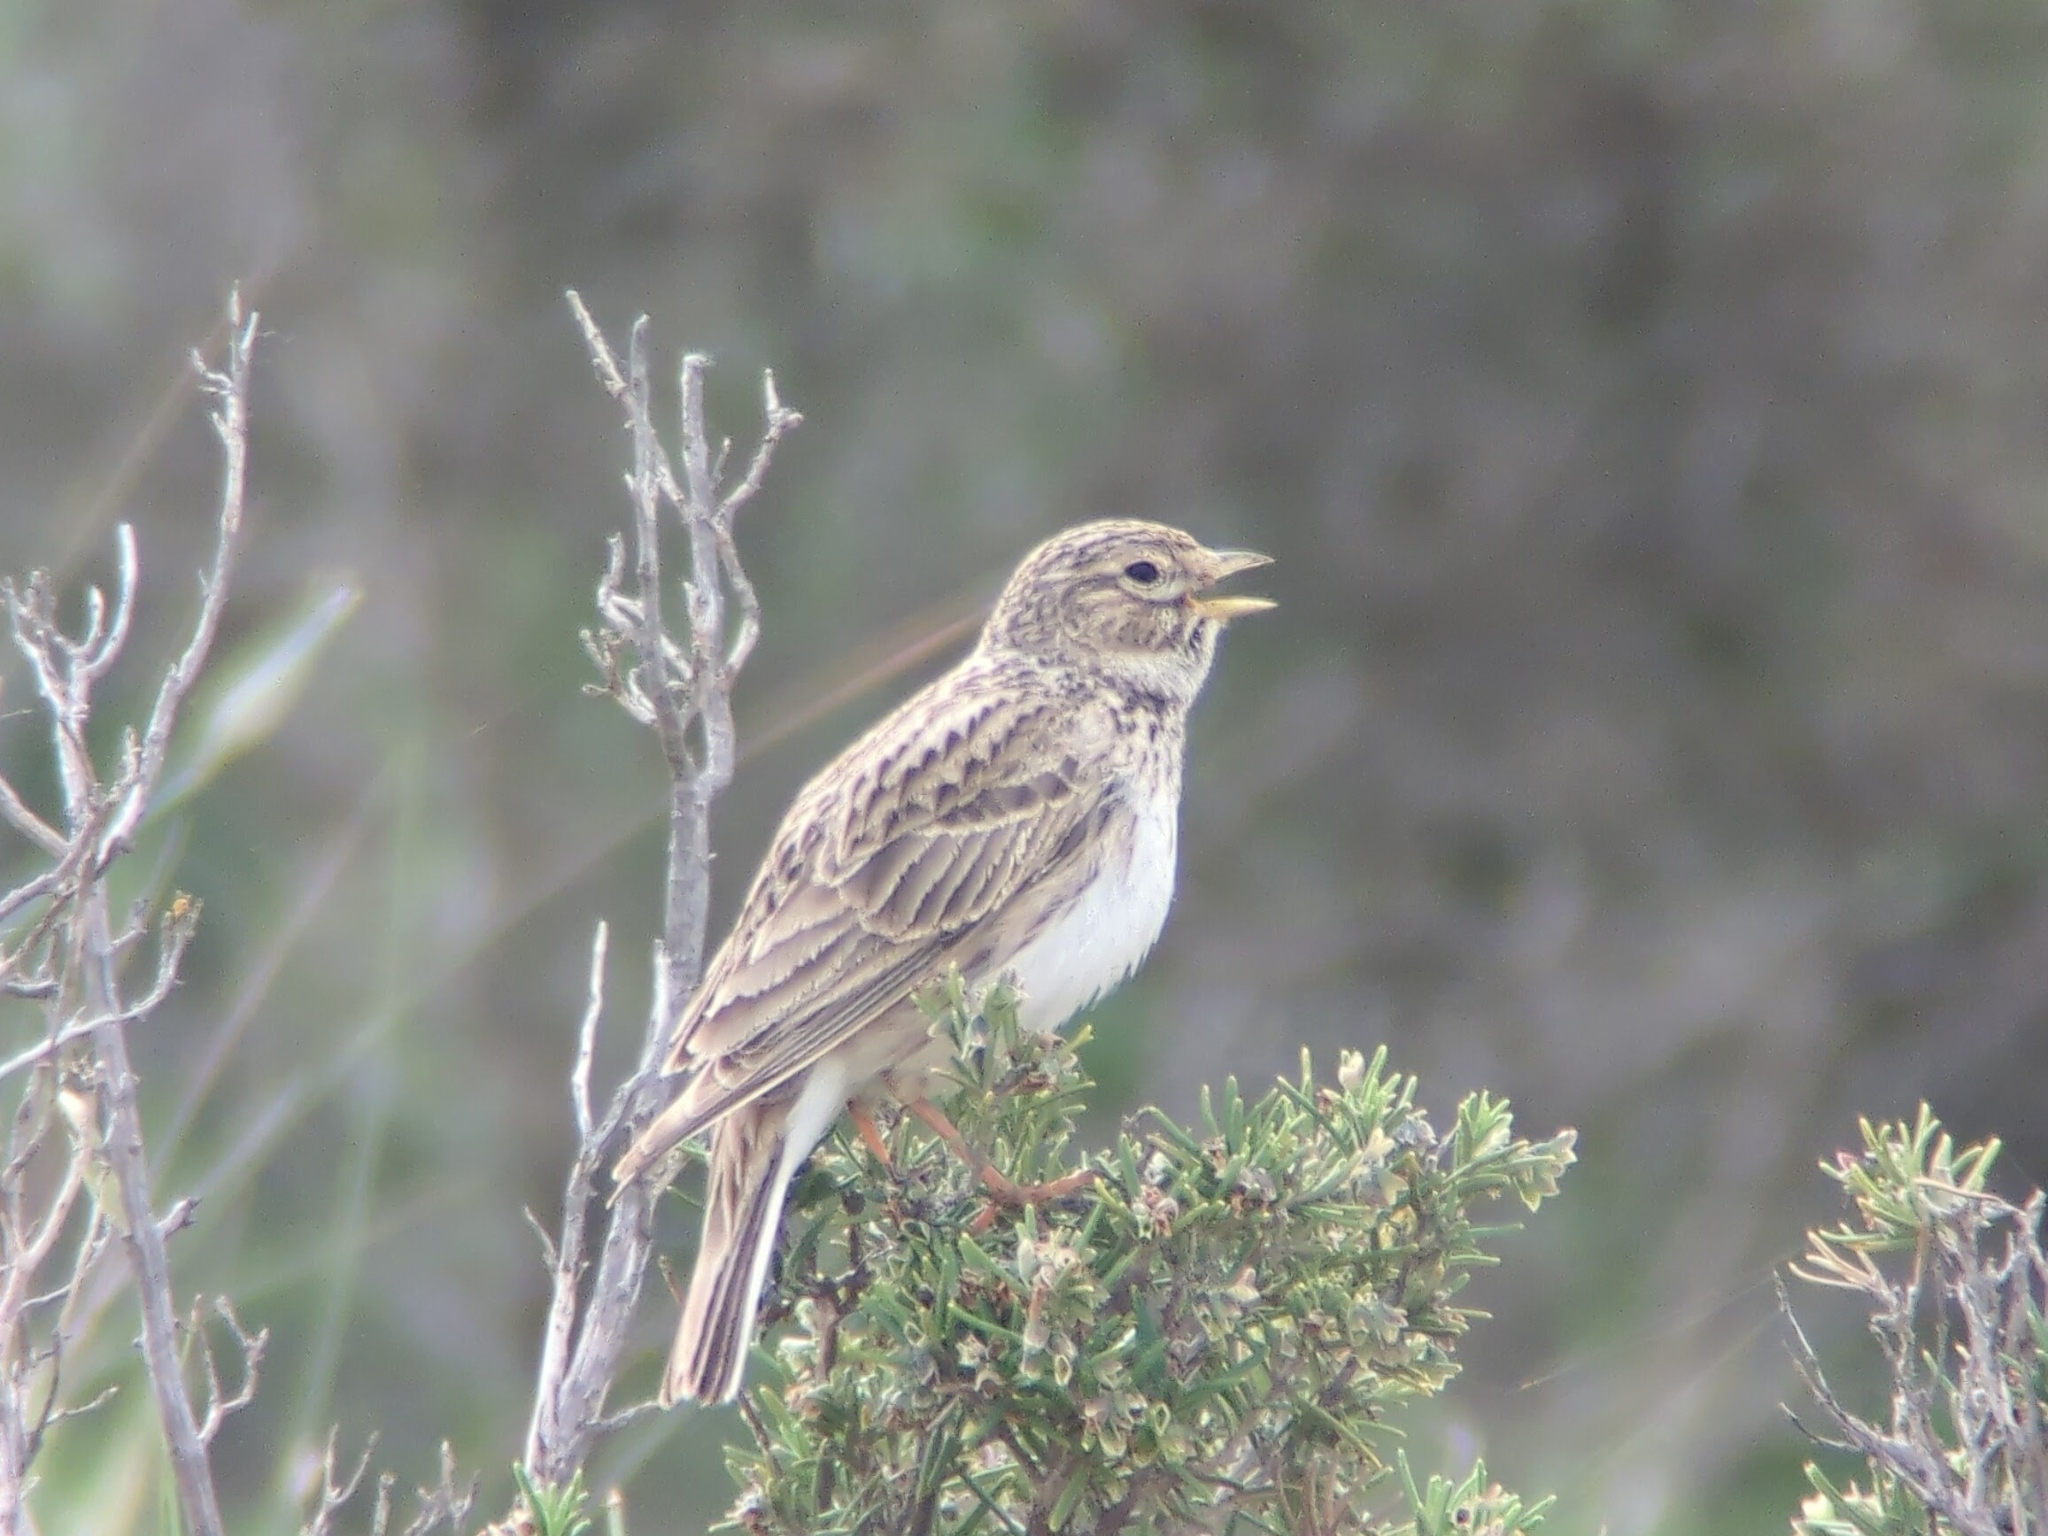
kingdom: Animalia
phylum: Chordata
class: Aves
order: Passeriformes
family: Alaudidae
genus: Calandrella
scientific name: Calandrella rufescens
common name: Lesser short-toed lark
